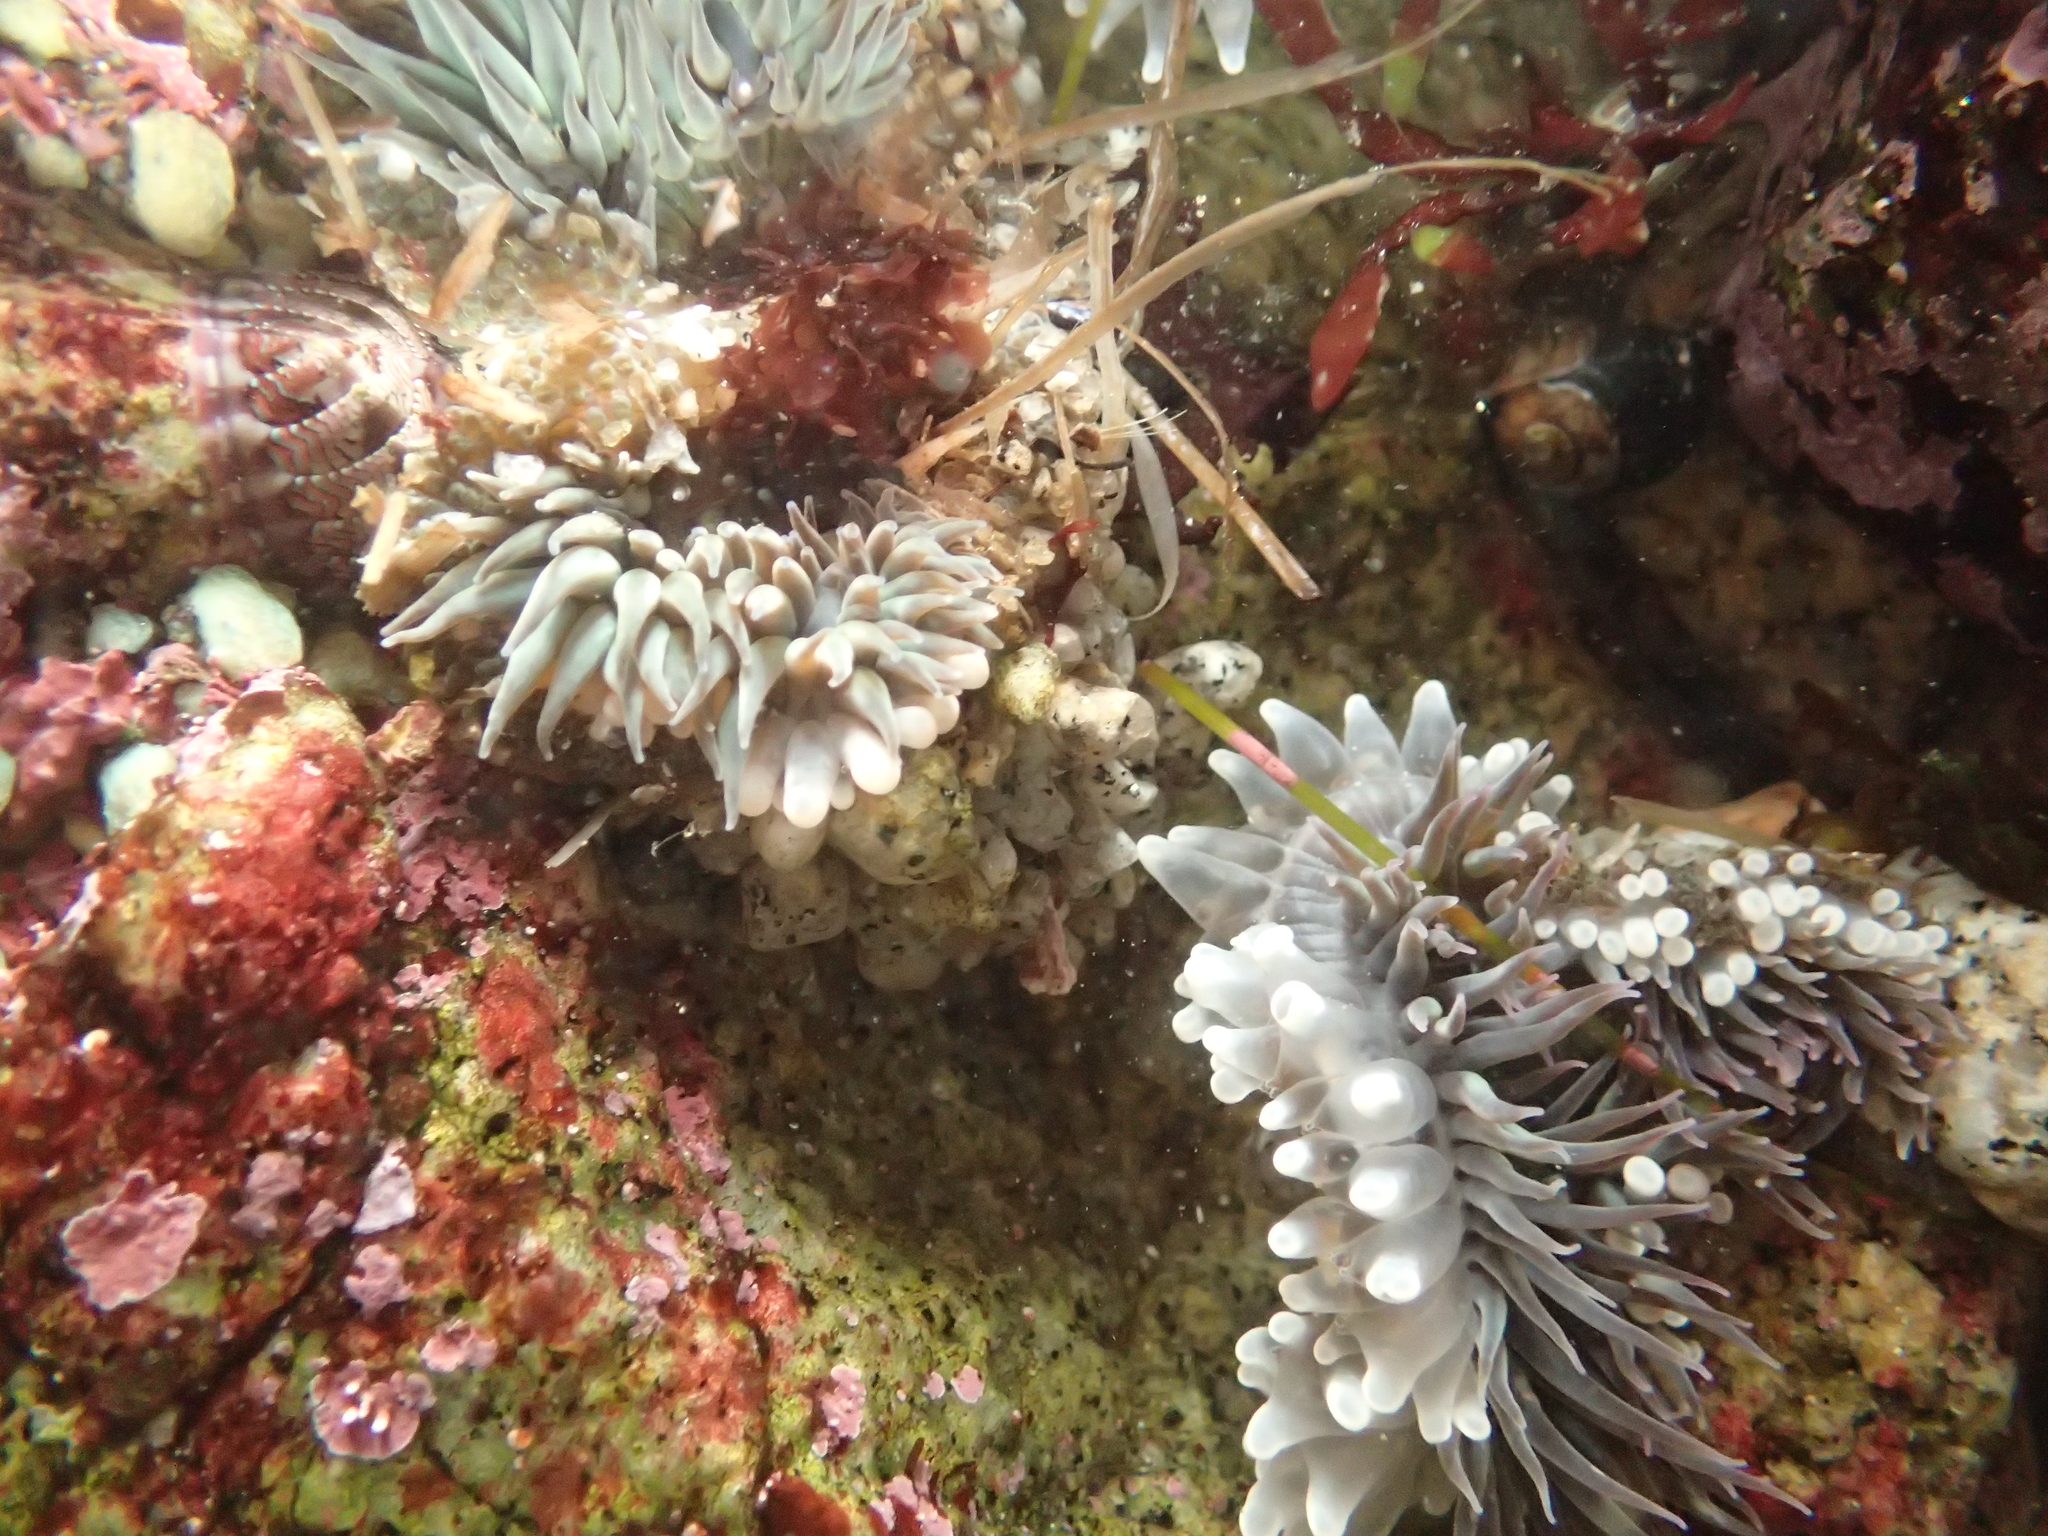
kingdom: Animalia
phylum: Cnidaria
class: Anthozoa
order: Actiniaria
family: Actiniidae
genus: Anthopleura
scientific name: Anthopleura sola
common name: Sun anemone
